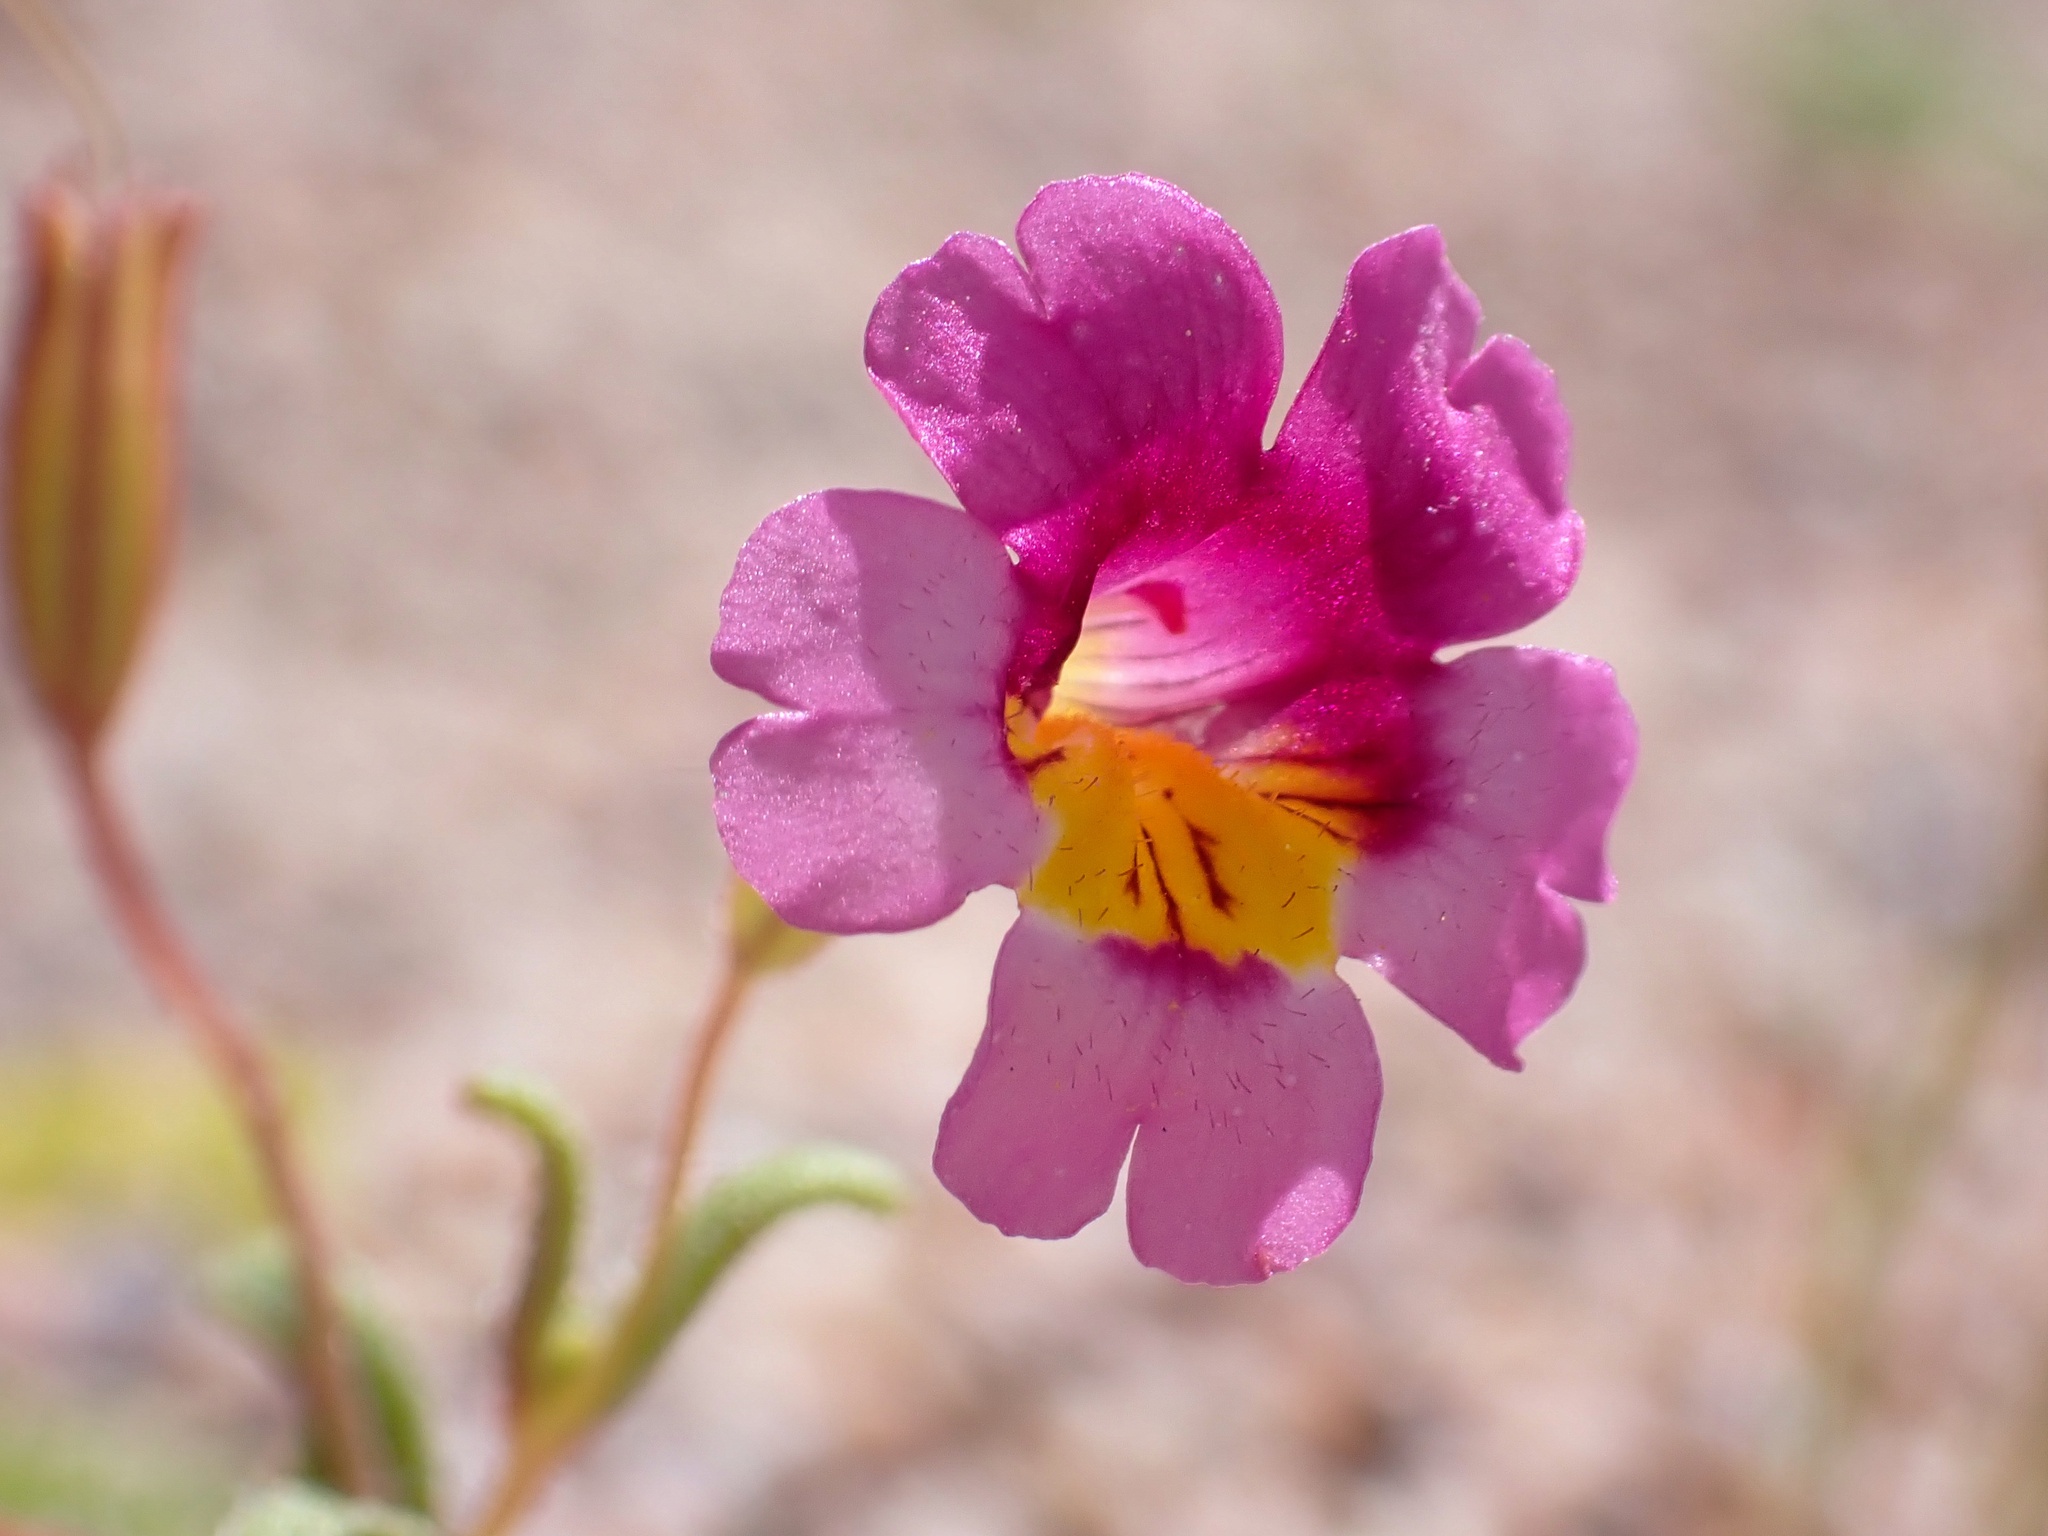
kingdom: Plantae
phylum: Tracheophyta
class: Magnoliopsida
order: Lamiales
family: Phrymaceae
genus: Erythranthe
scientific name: Erythranthe rhodopetra
